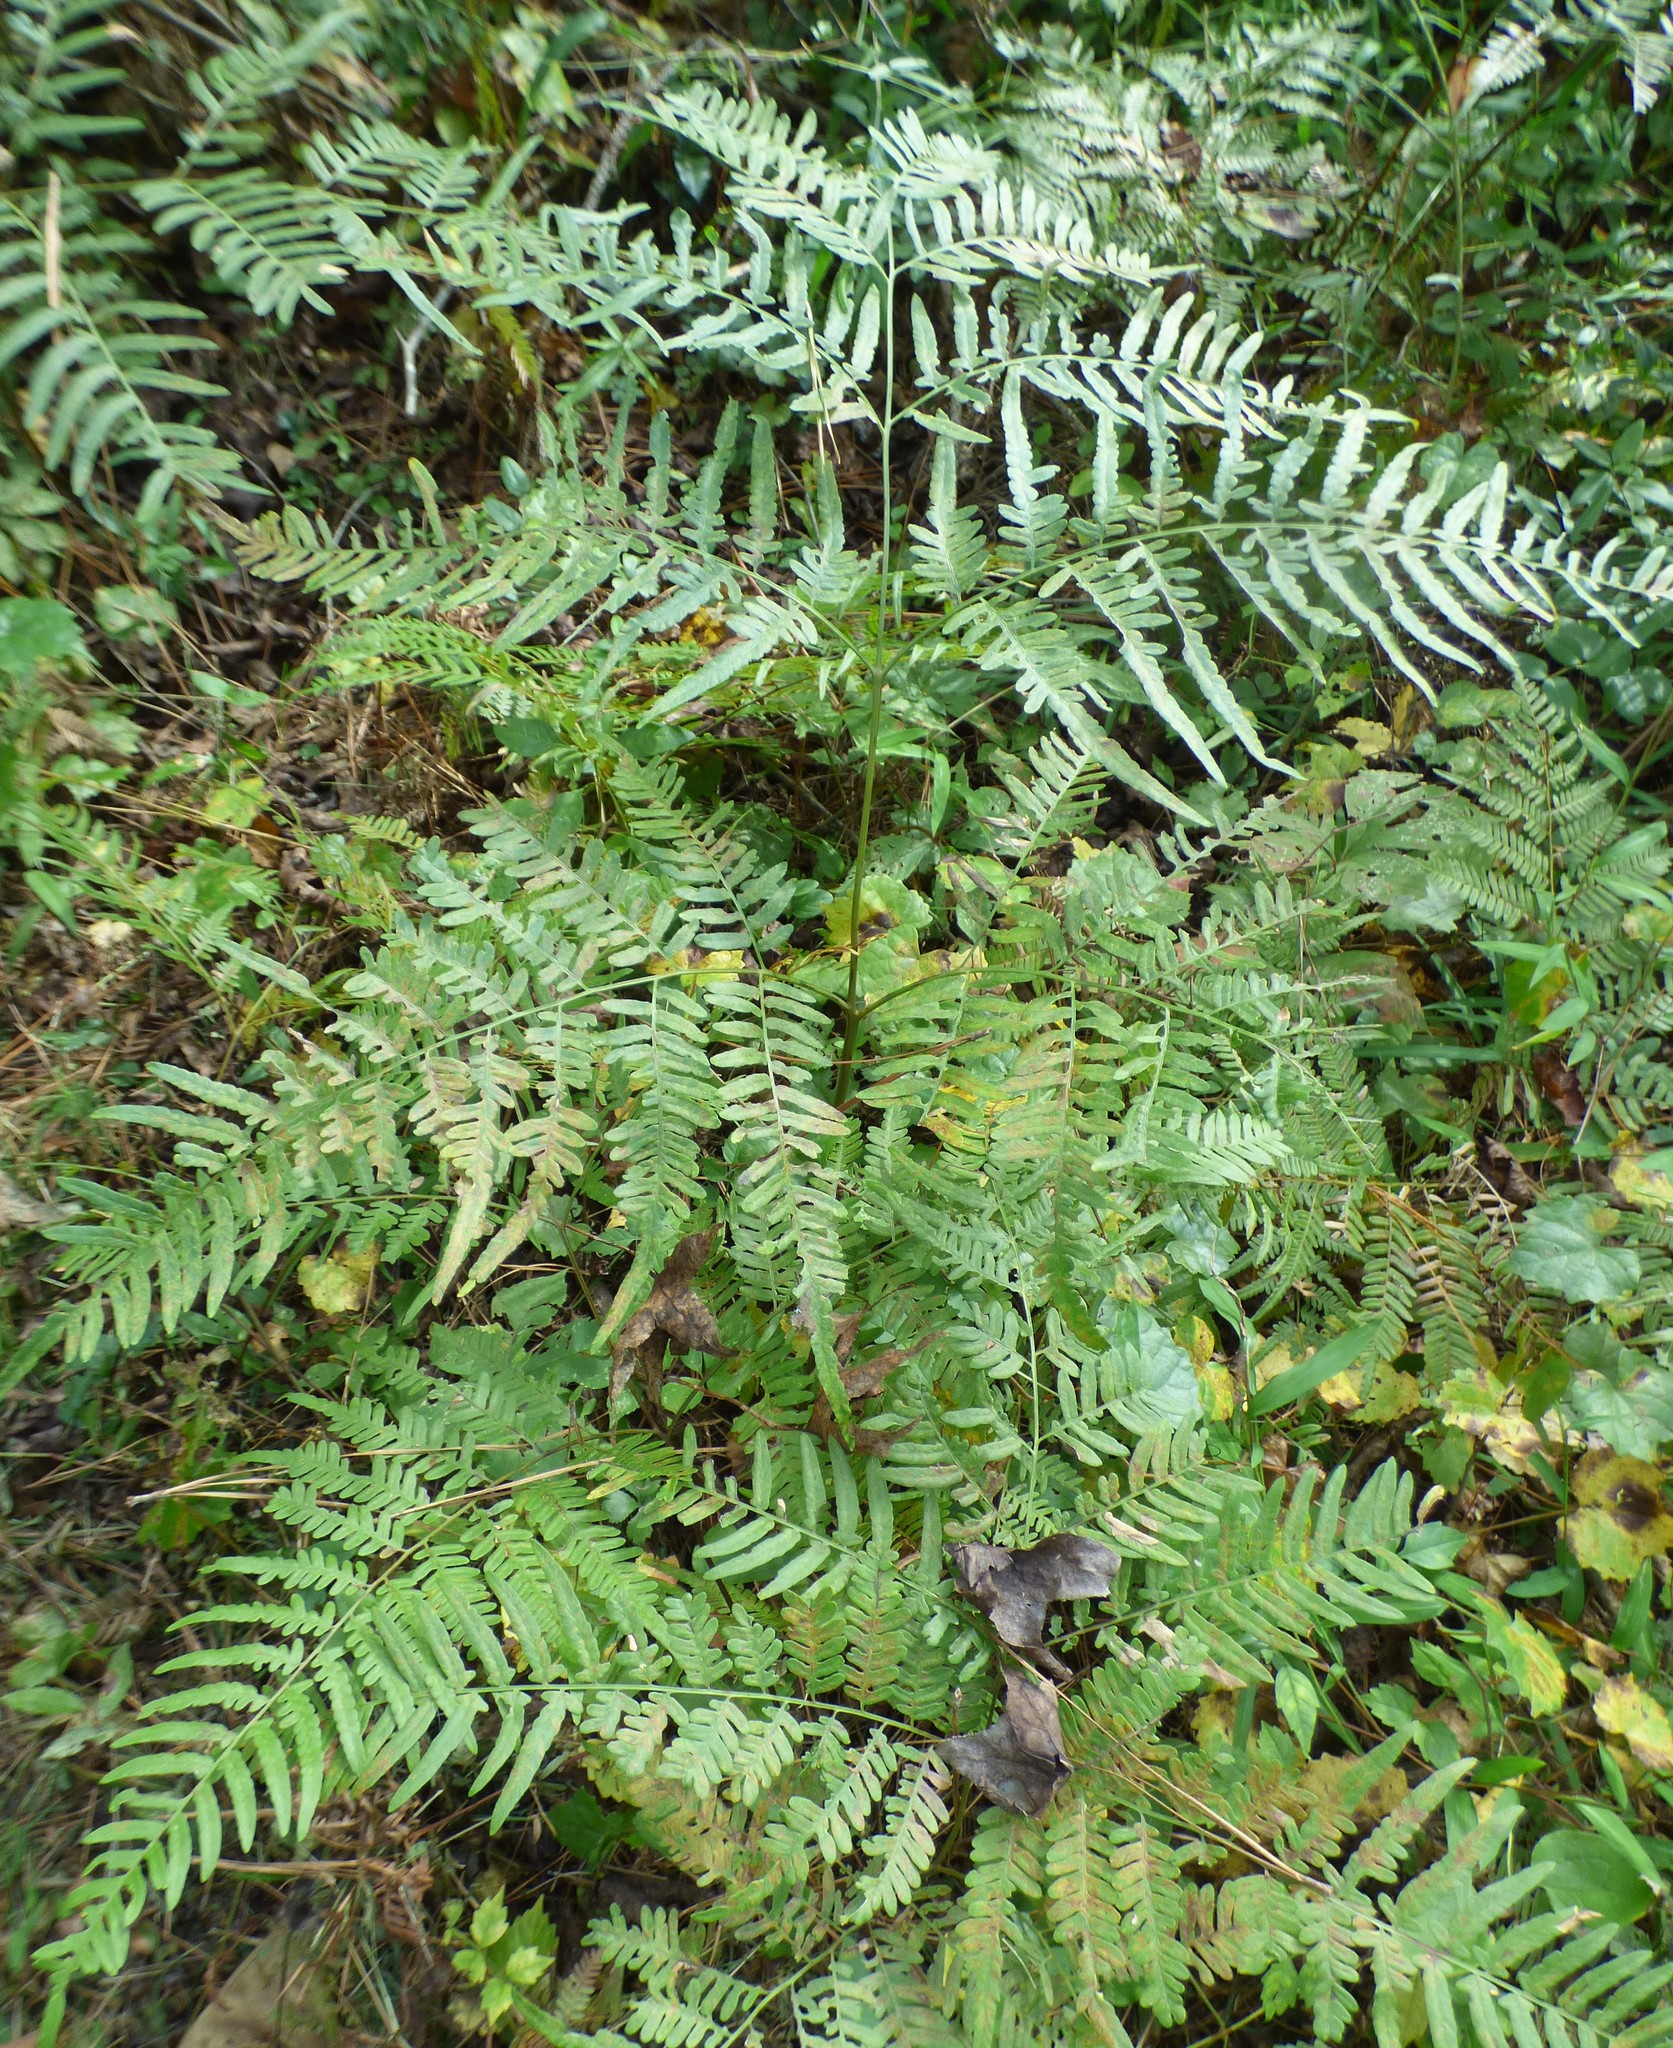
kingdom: Plantae
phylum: Tracheophyta
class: Polypodiopsida
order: Polypodiales
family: Dennstaedtiaceae
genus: Pteridium
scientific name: Pteridium aquilinum
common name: Bracken
